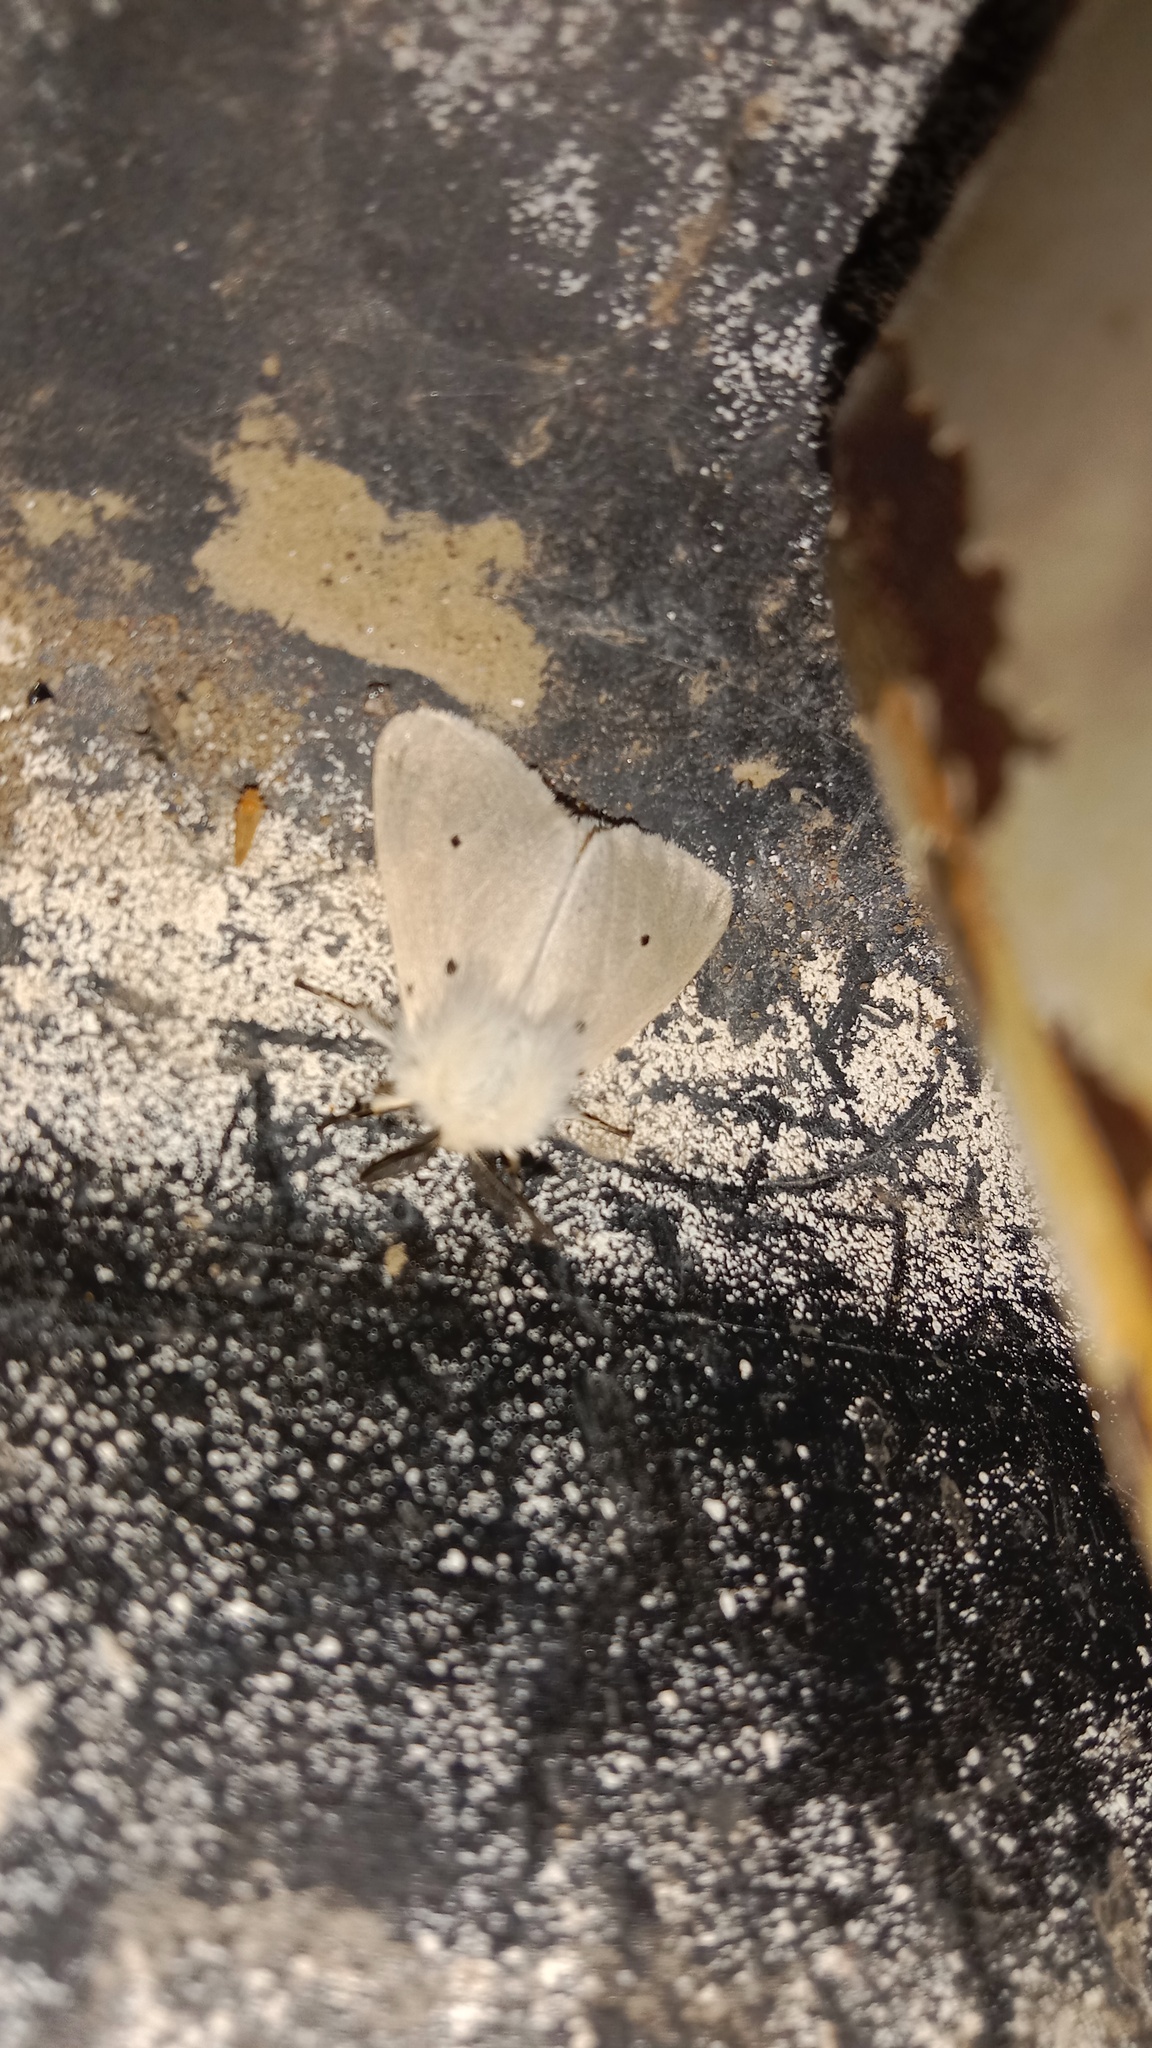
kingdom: Animalia
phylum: Arthropoda
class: Insecta
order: Lepidoptera
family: Erebidae
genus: Diaphora
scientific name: Diaphora mendica
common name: Muslin moth
